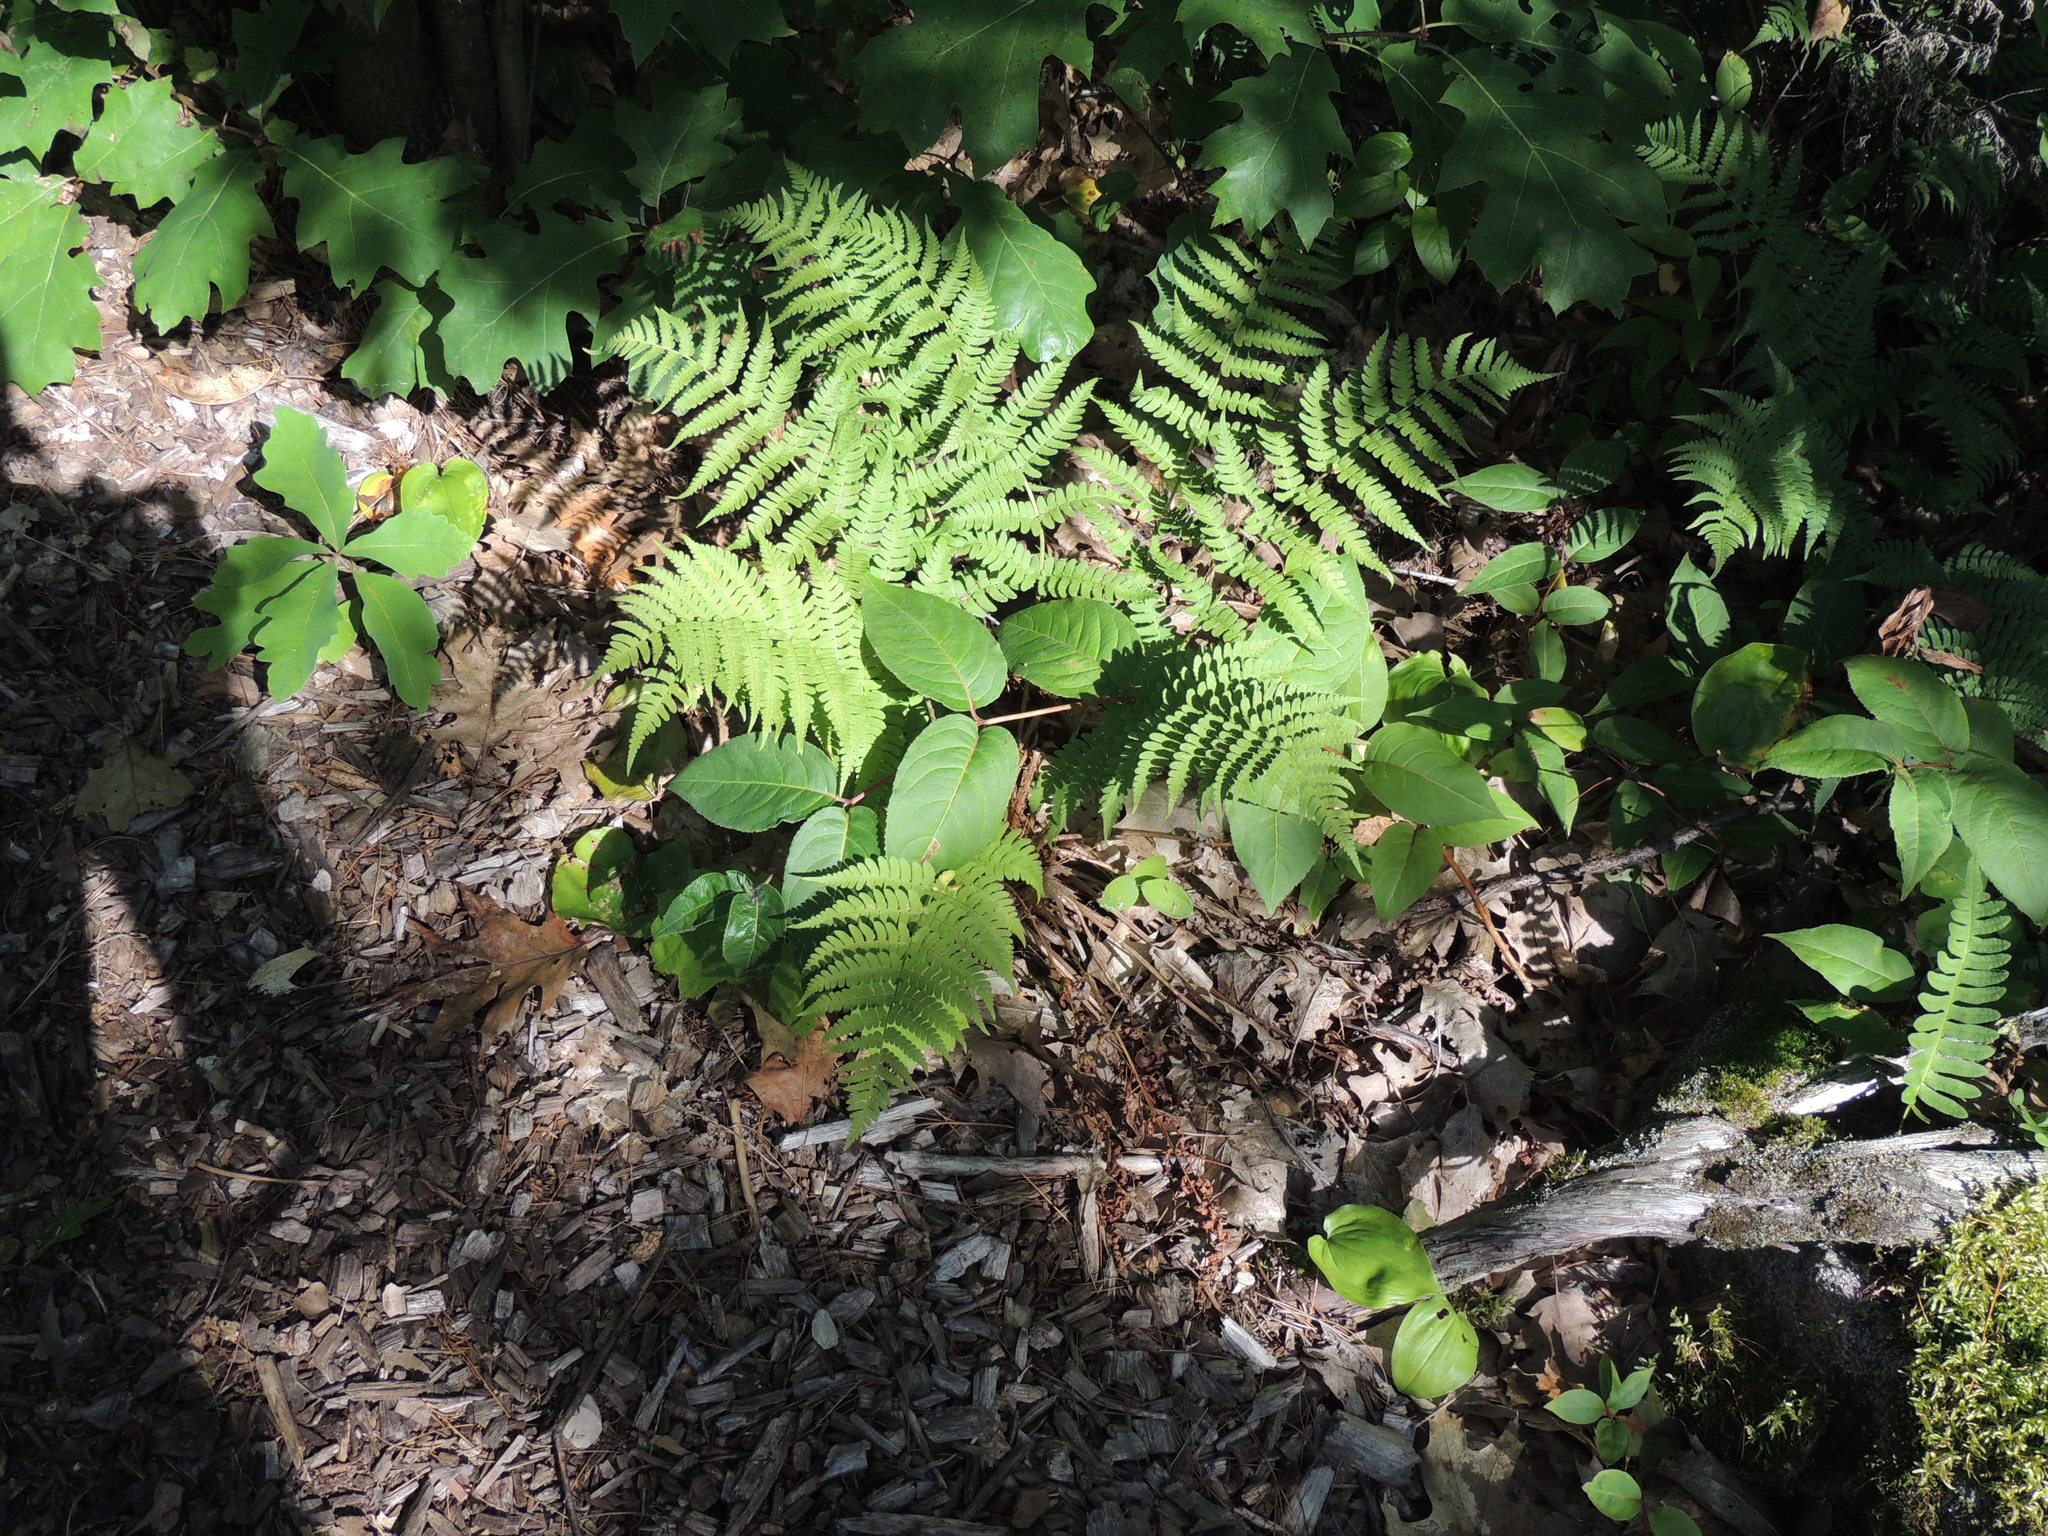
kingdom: Plantae
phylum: Tracheophyta
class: Polypodiopsida
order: Polypodiales
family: Dryopteridaceae
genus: Dryopteris
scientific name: Dryopteris marginalis
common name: Marginal wood fern
